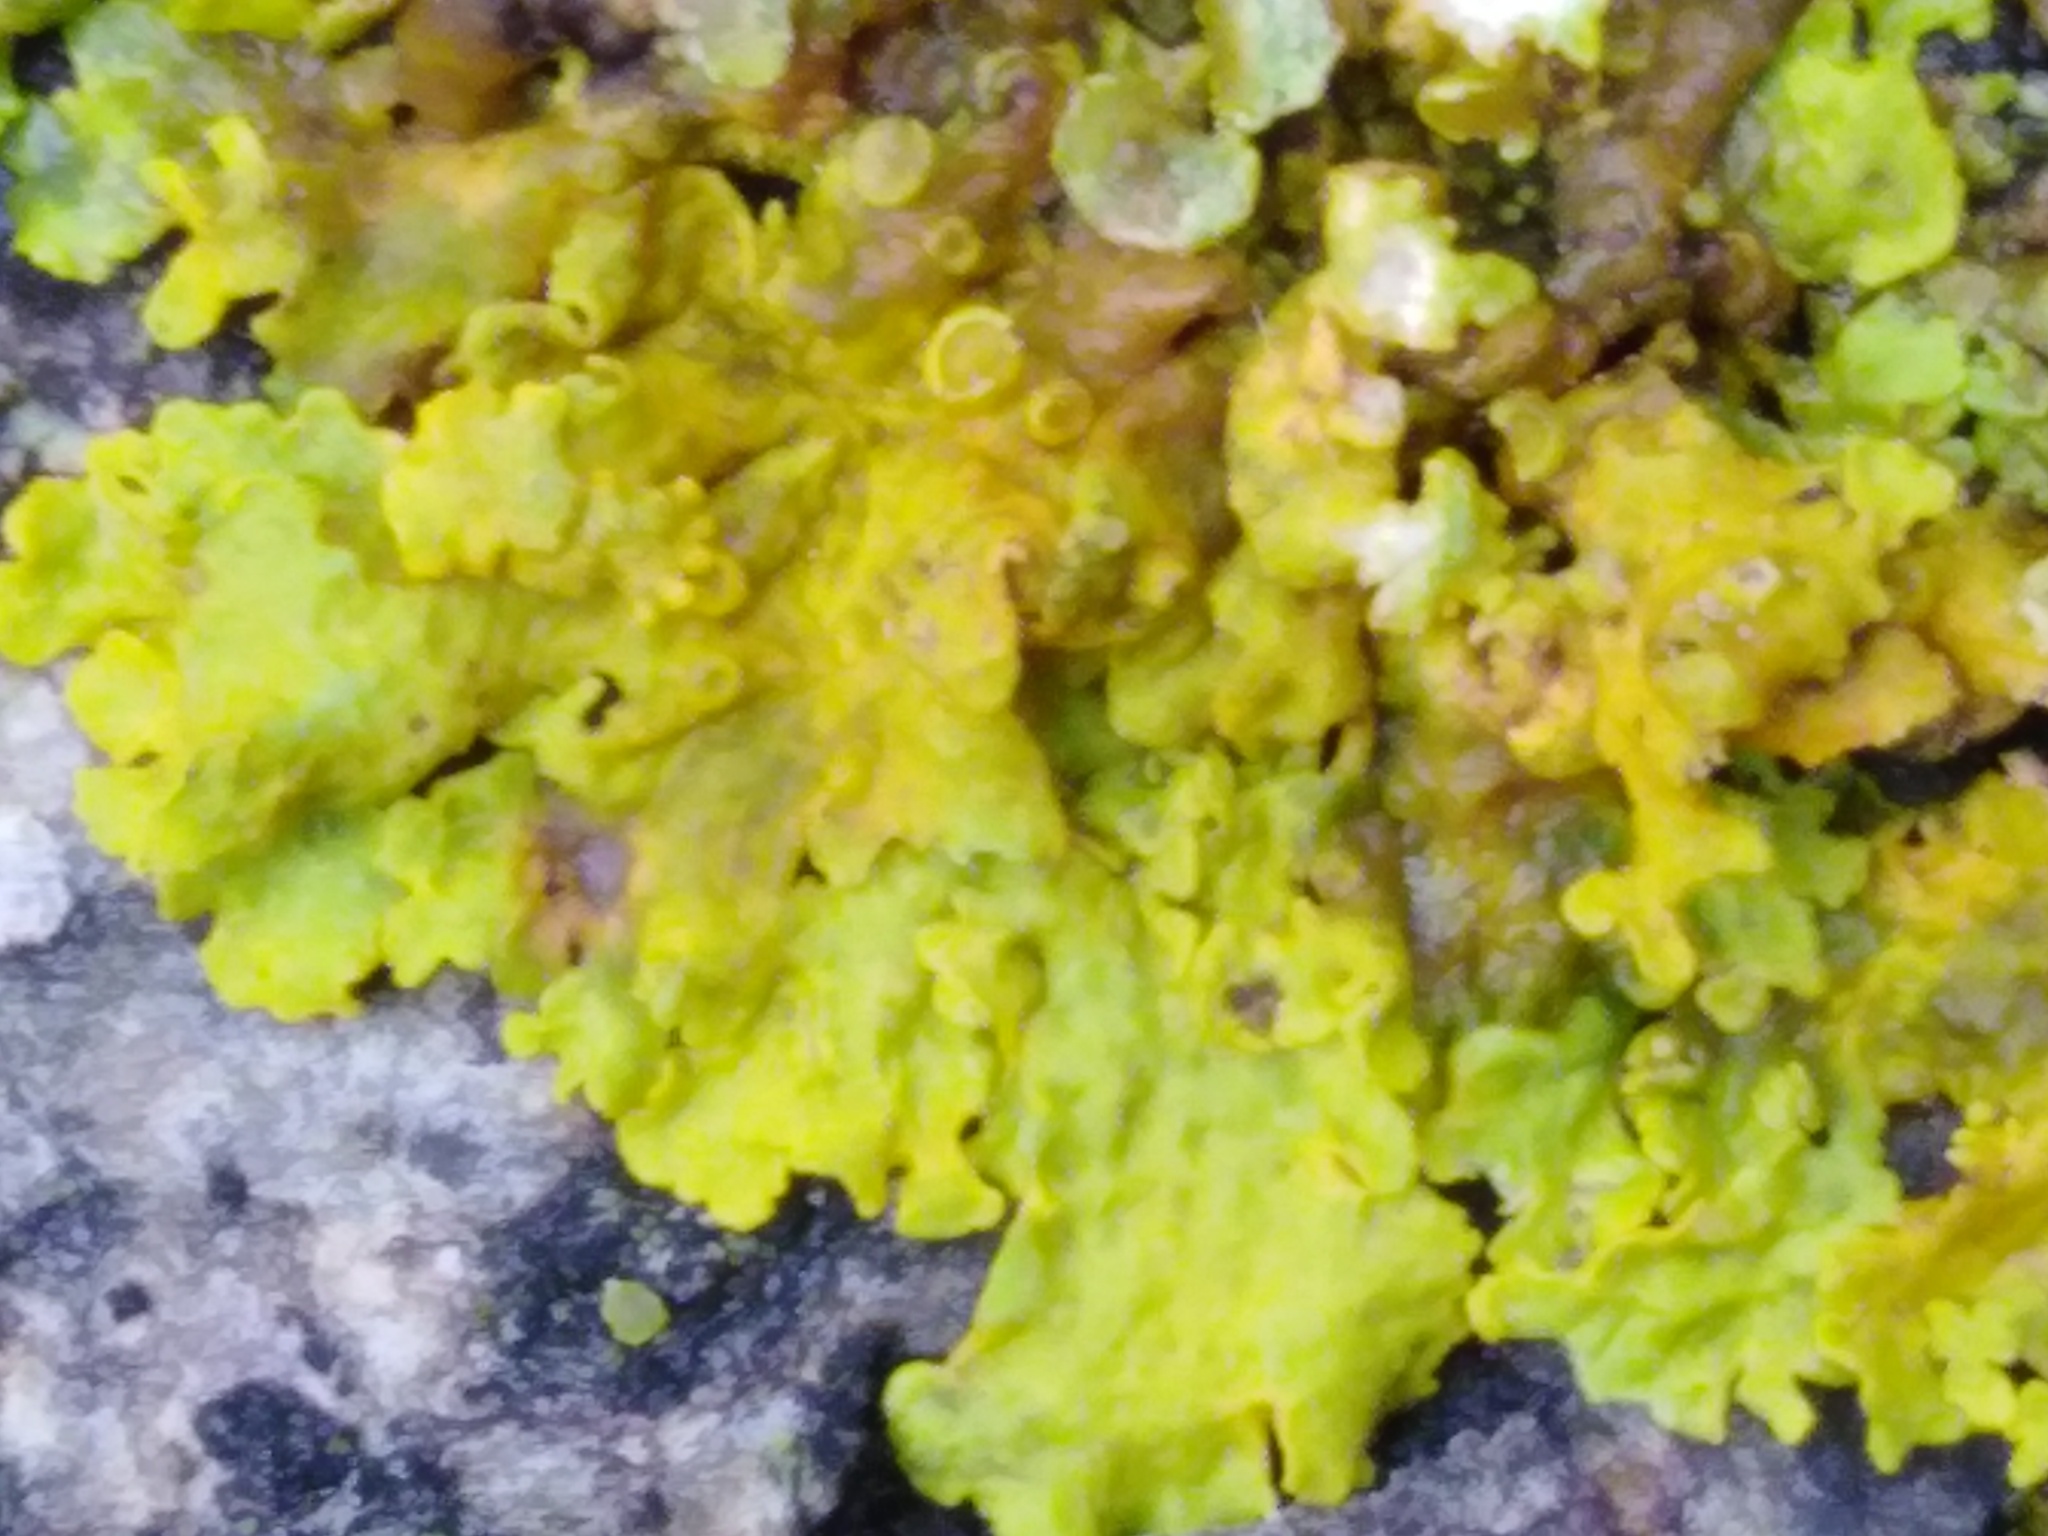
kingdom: Fungi
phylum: Ascomycota
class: Lecanoromycetes
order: Teloschistales
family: Teloschistaceae
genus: Xanthoria
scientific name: Xanthoria parietina
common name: Common orange lichen
